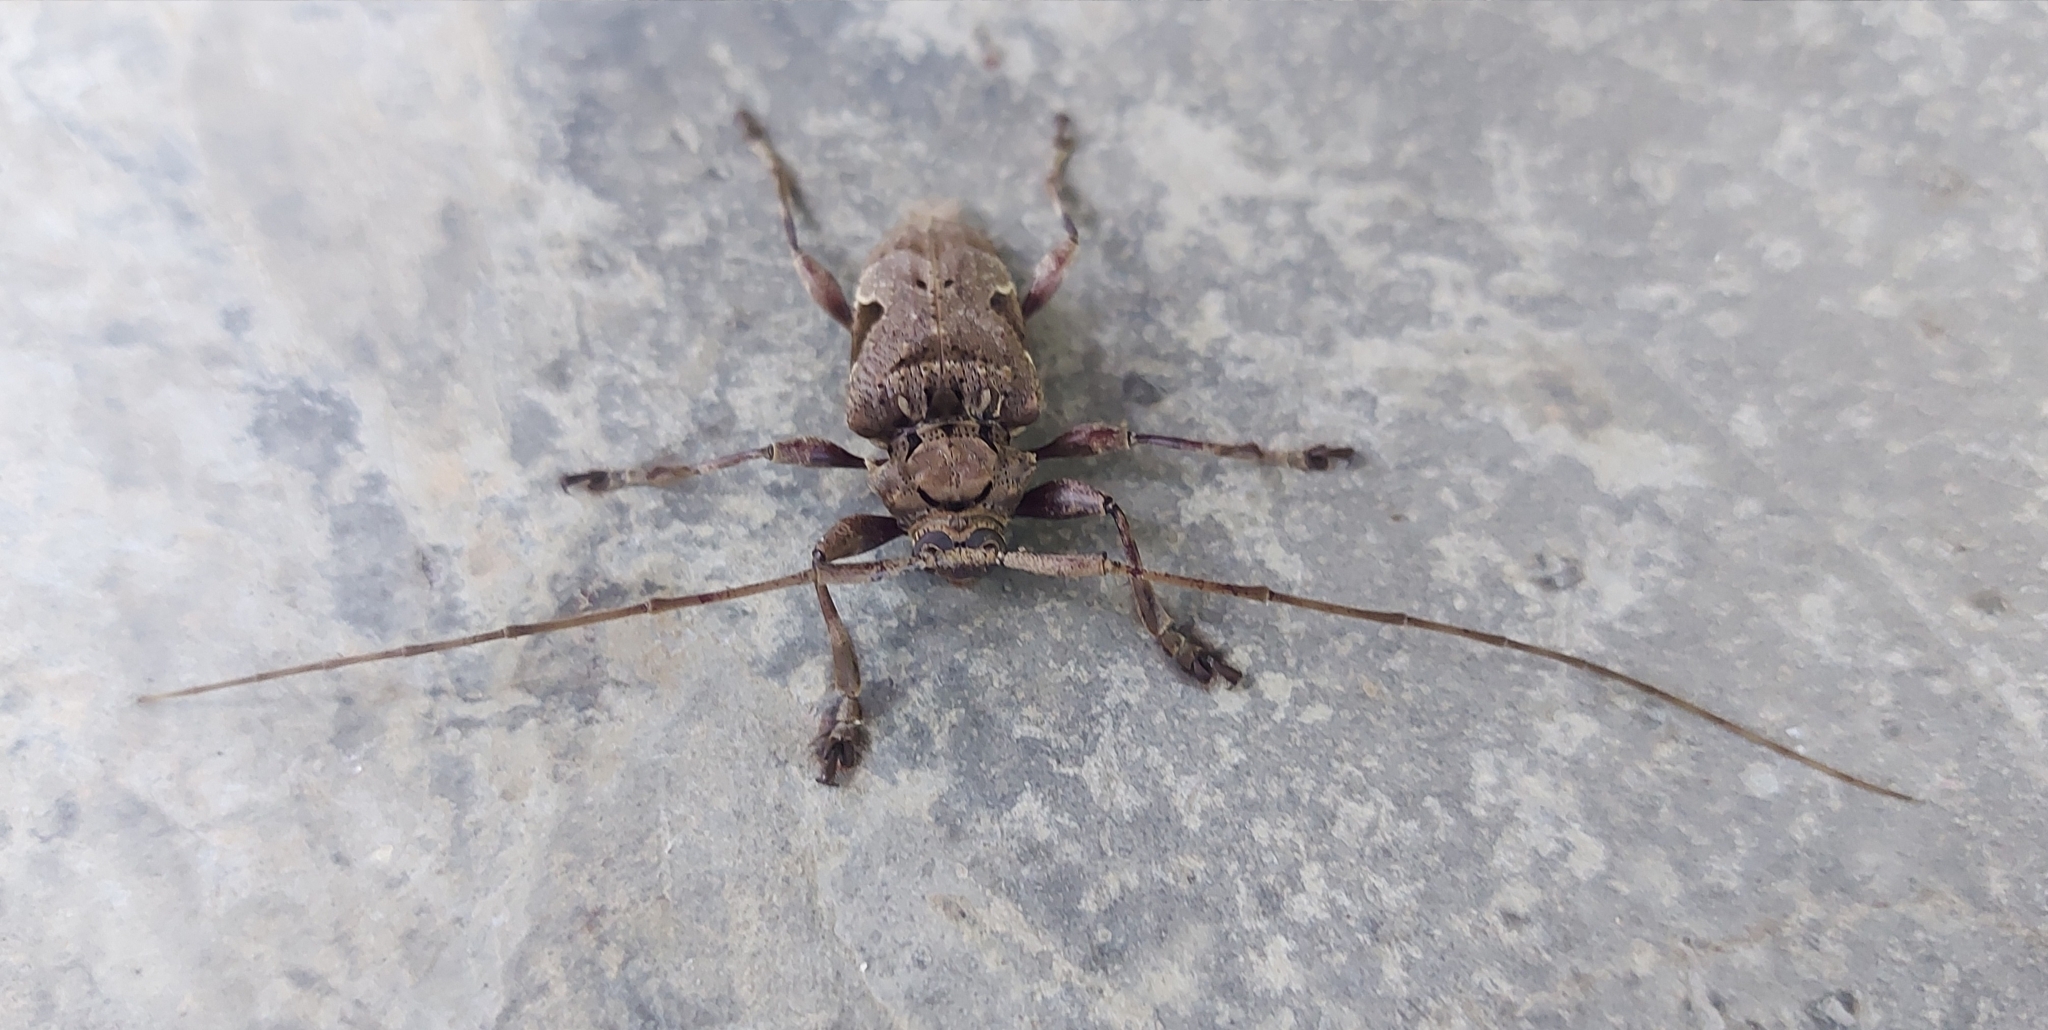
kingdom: Animalia
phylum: Arthropoda
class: Insecta
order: Coleoptera
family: Cerambycidae
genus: Lagocheirus
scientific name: Lagocheirus araneiformis
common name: Beetle
